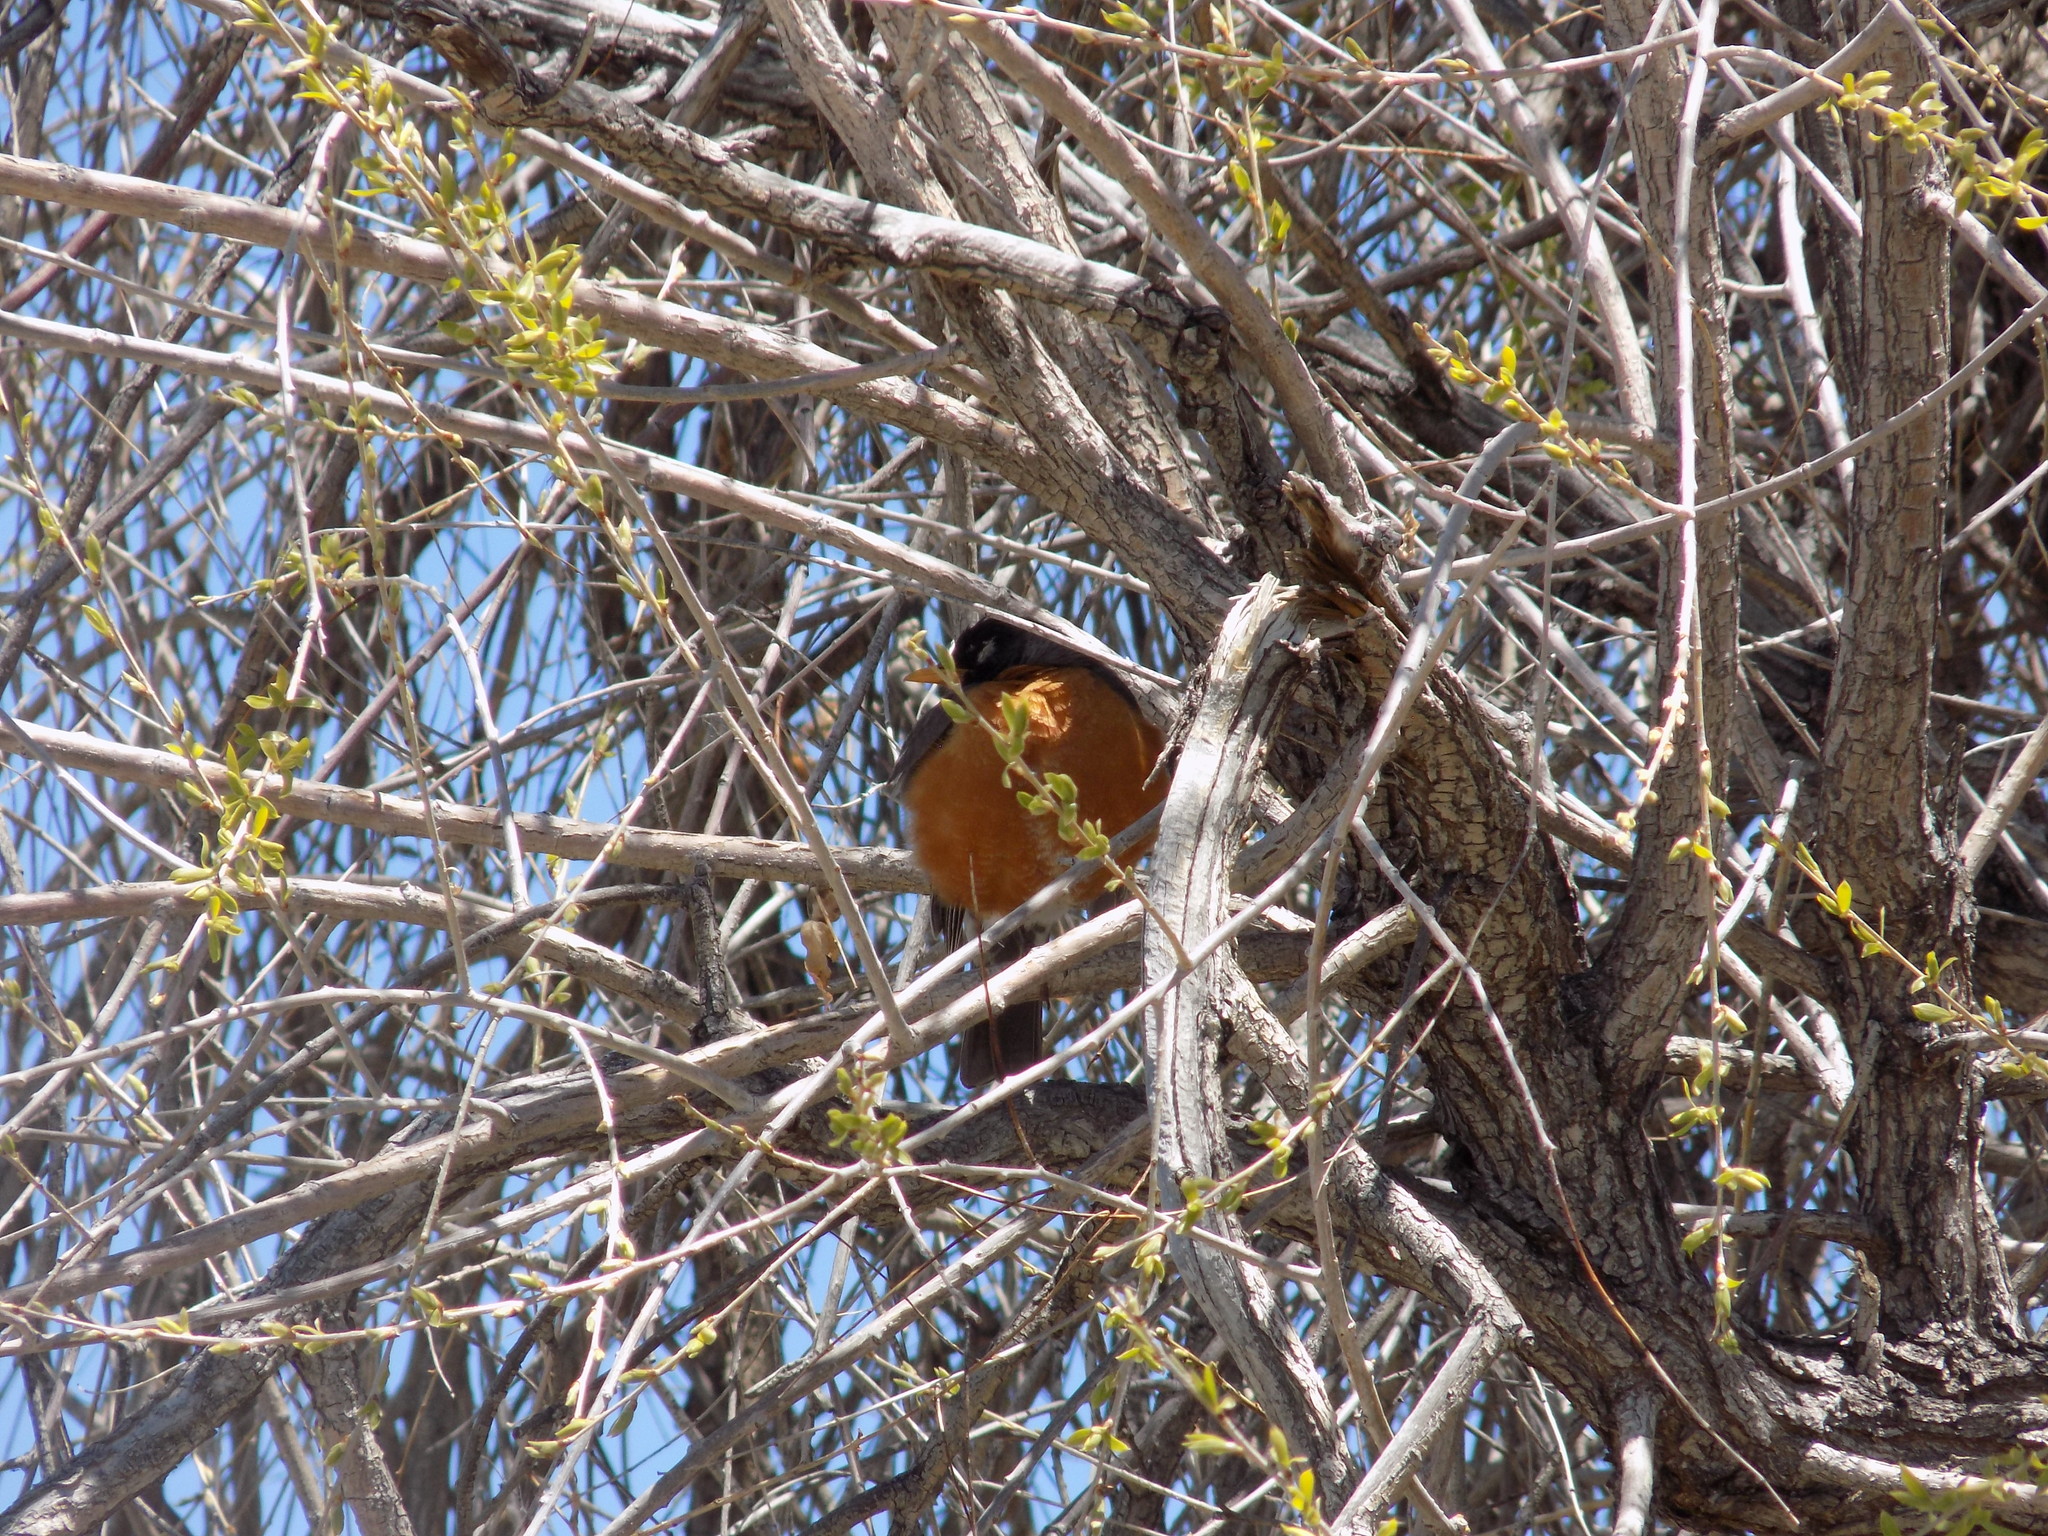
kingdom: Animalia
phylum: Chordata
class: Aves
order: Passeriformes
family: Turdidae
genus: Turdus
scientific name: Turdus migratorius
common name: American robin
